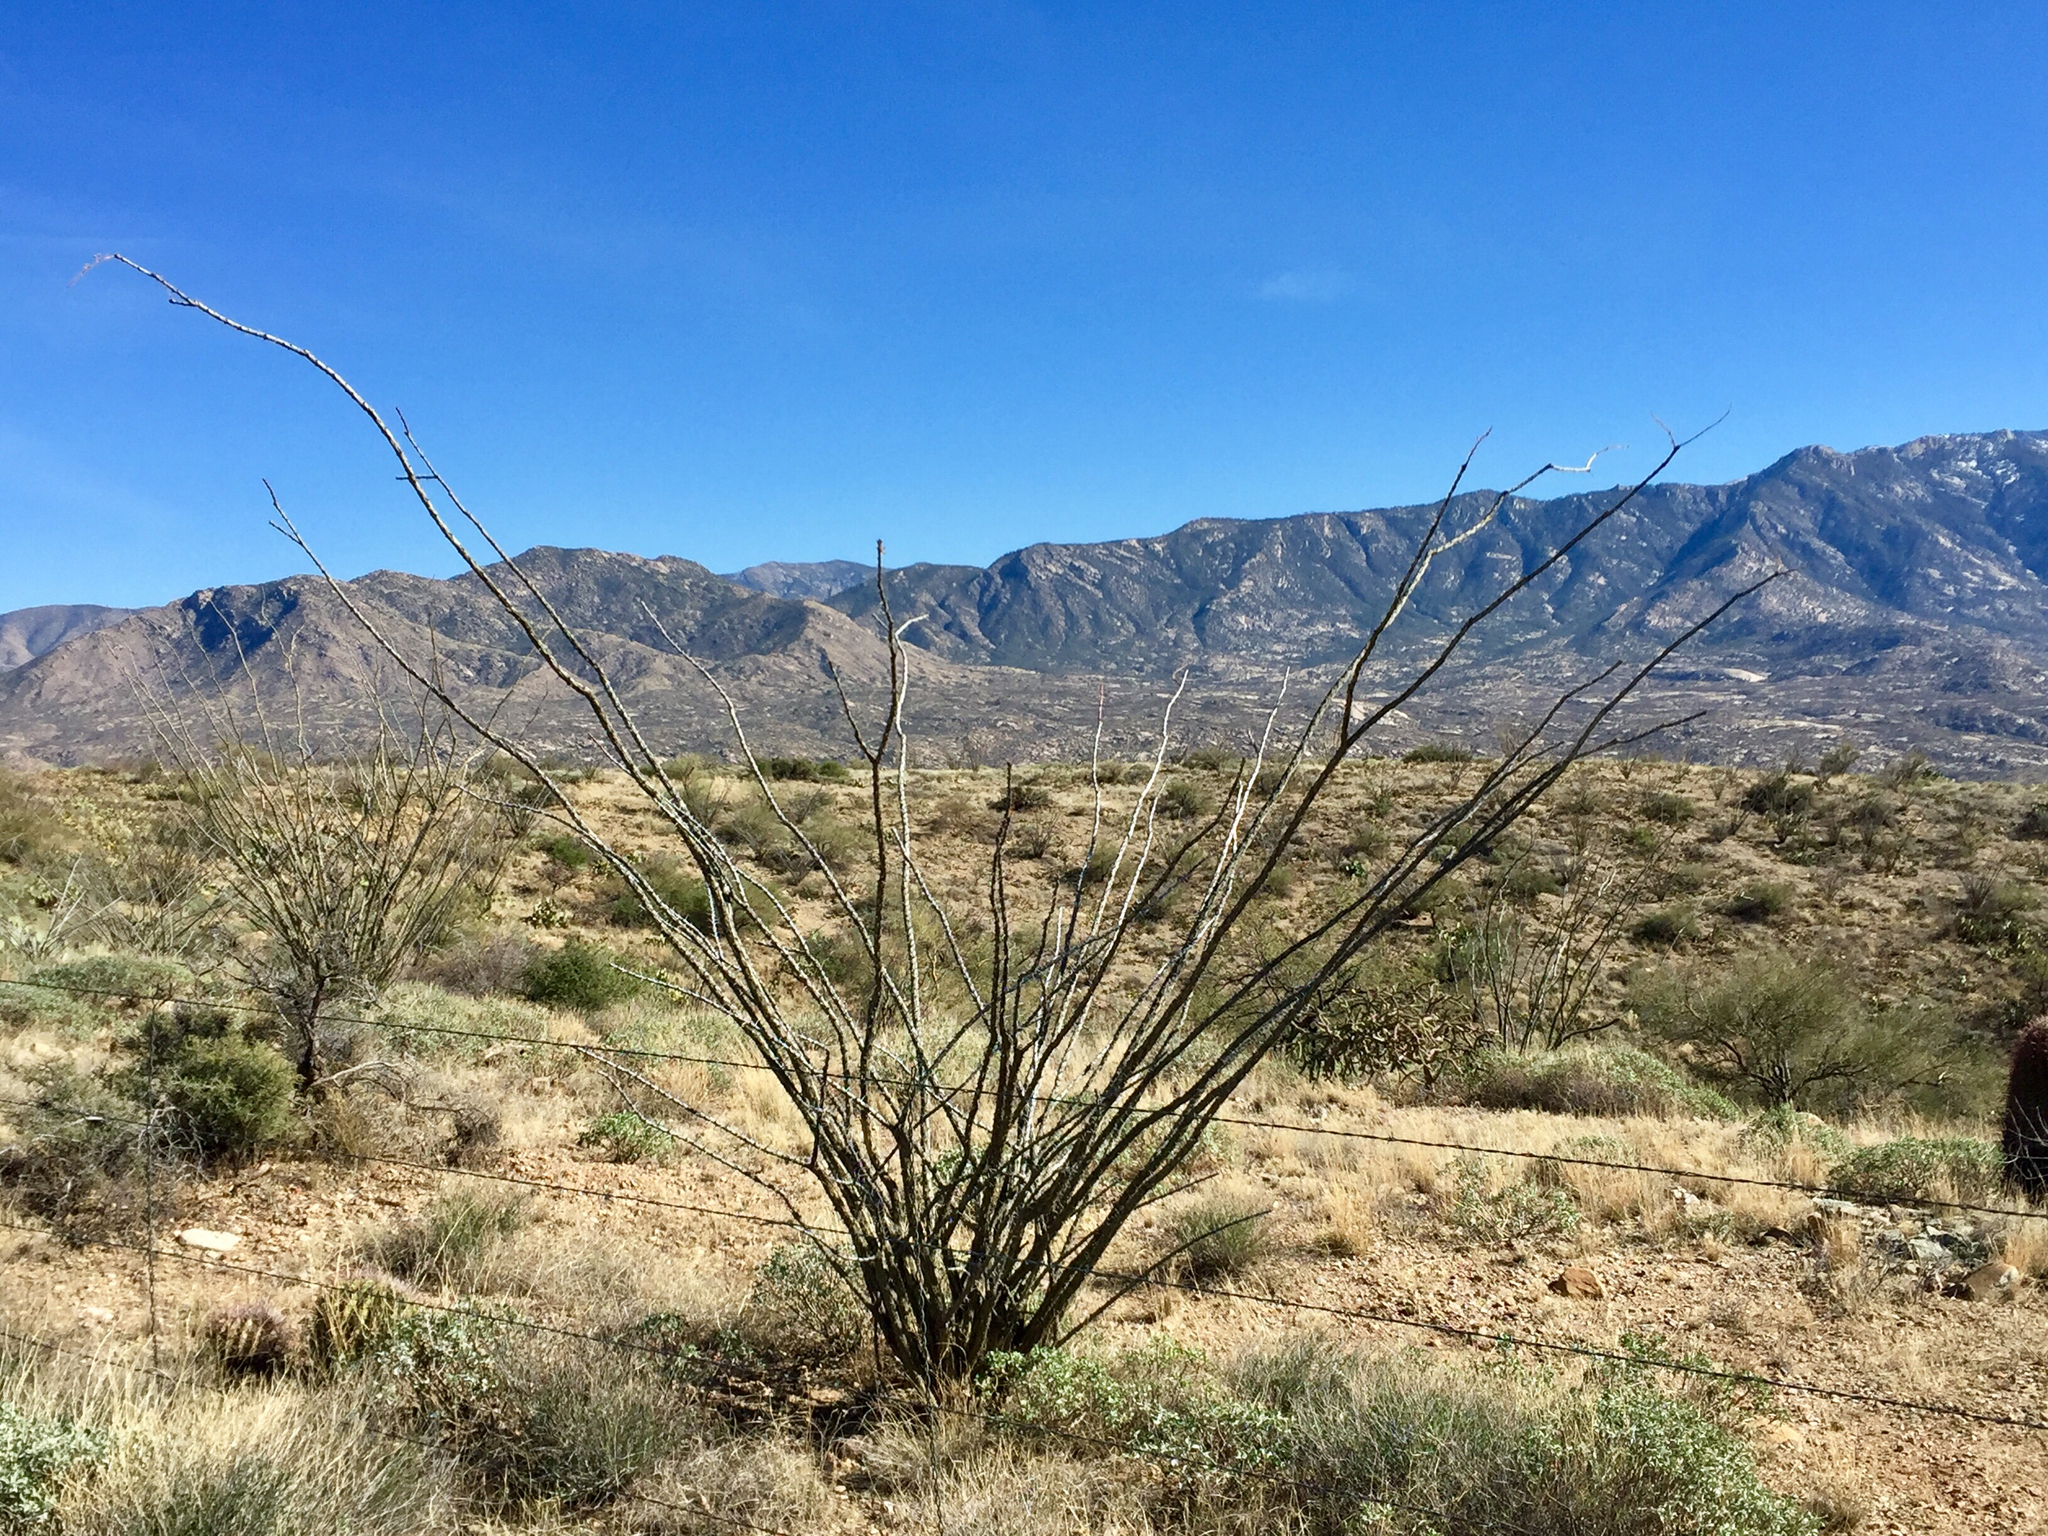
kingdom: Plantae
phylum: Tracheophyta
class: Magnoliopsida
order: Ericales
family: Fouquieriaceae
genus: Fouquieria
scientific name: Fouquieria splendens
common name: Vine-cactus
